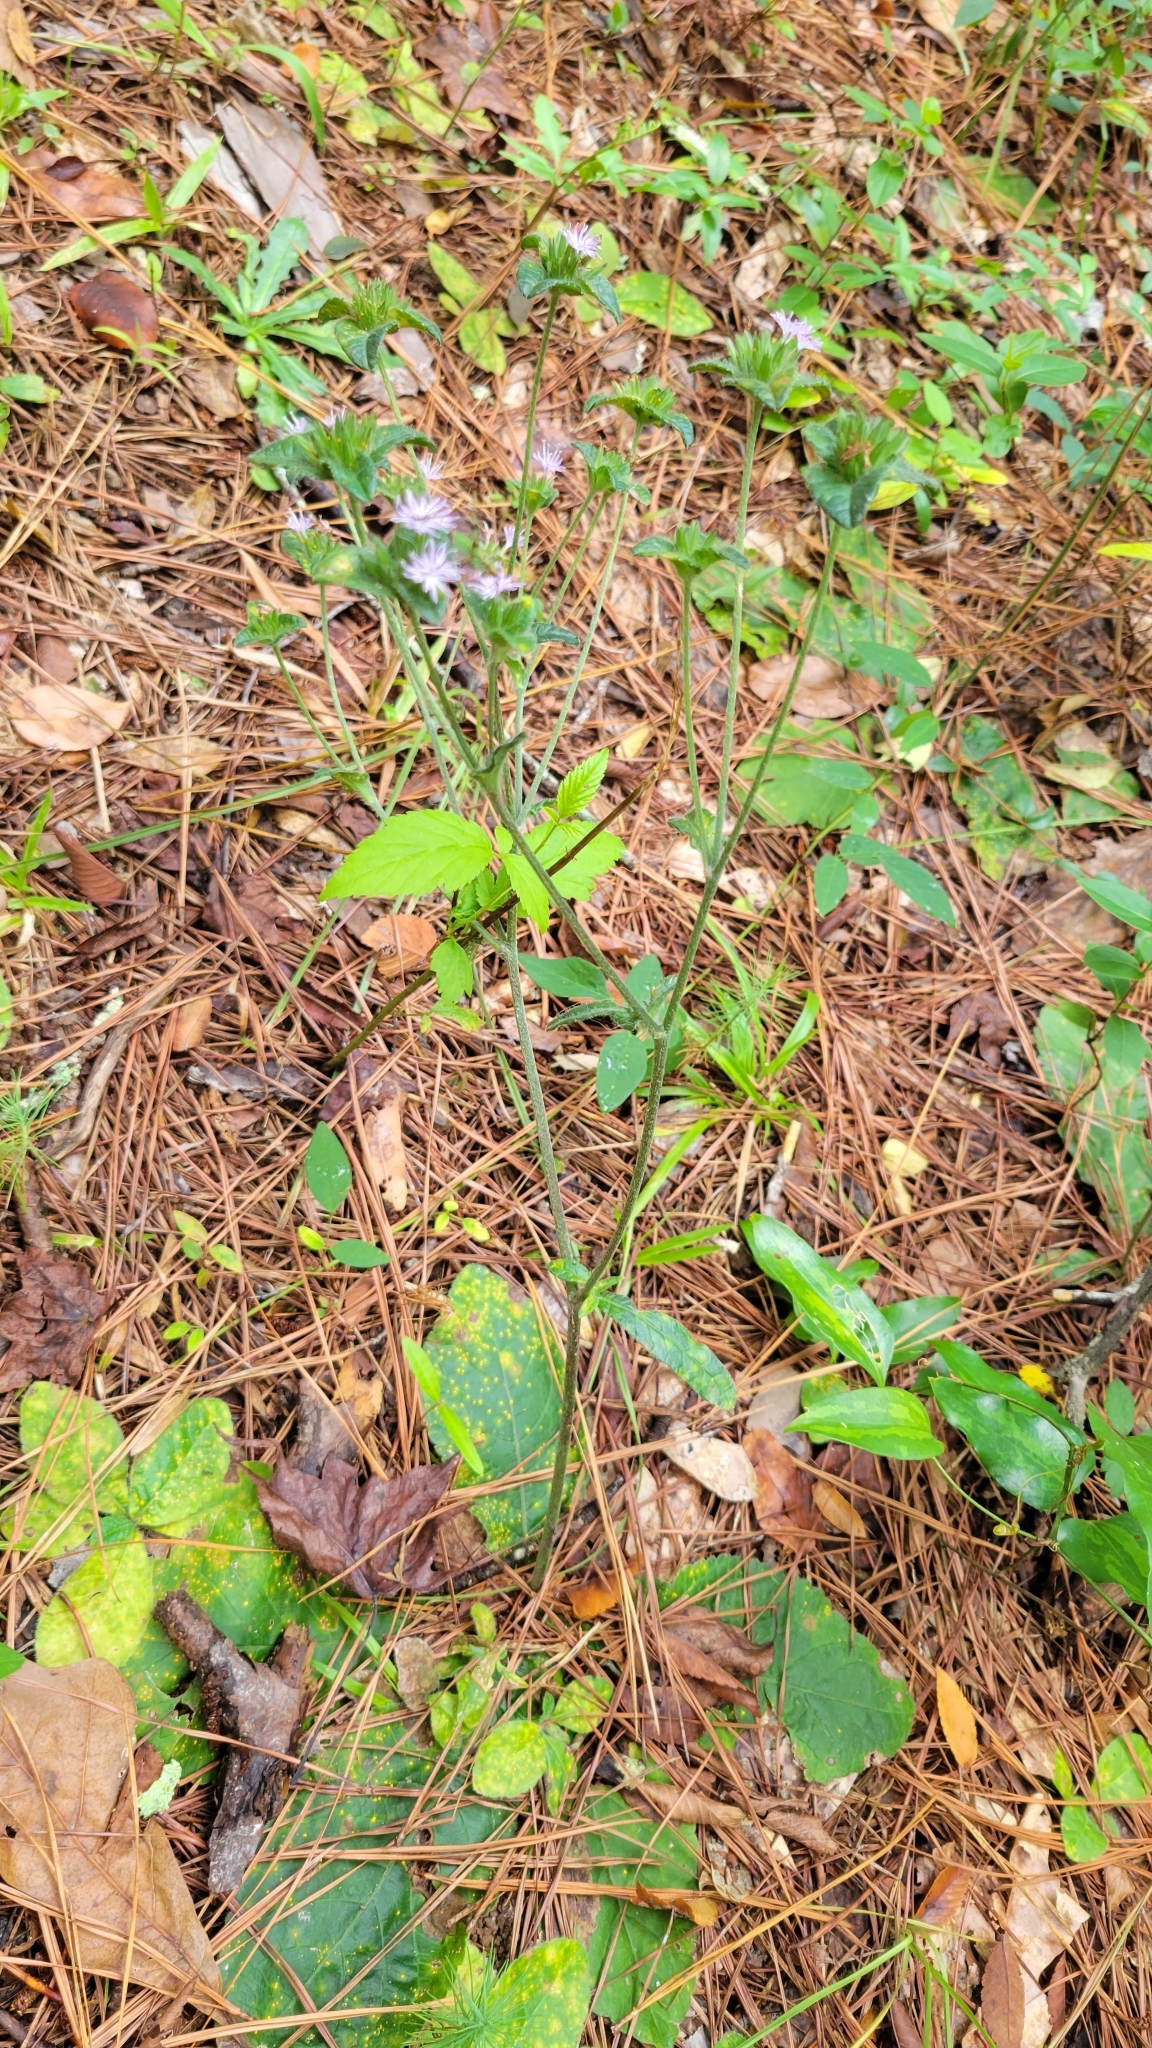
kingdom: Plantae
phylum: Tracheophyta
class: Magnoliopsida
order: Asterales
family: Asteraceae
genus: Elephantopus
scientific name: Elephantopus tomentosus
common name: Tobacco-weed
